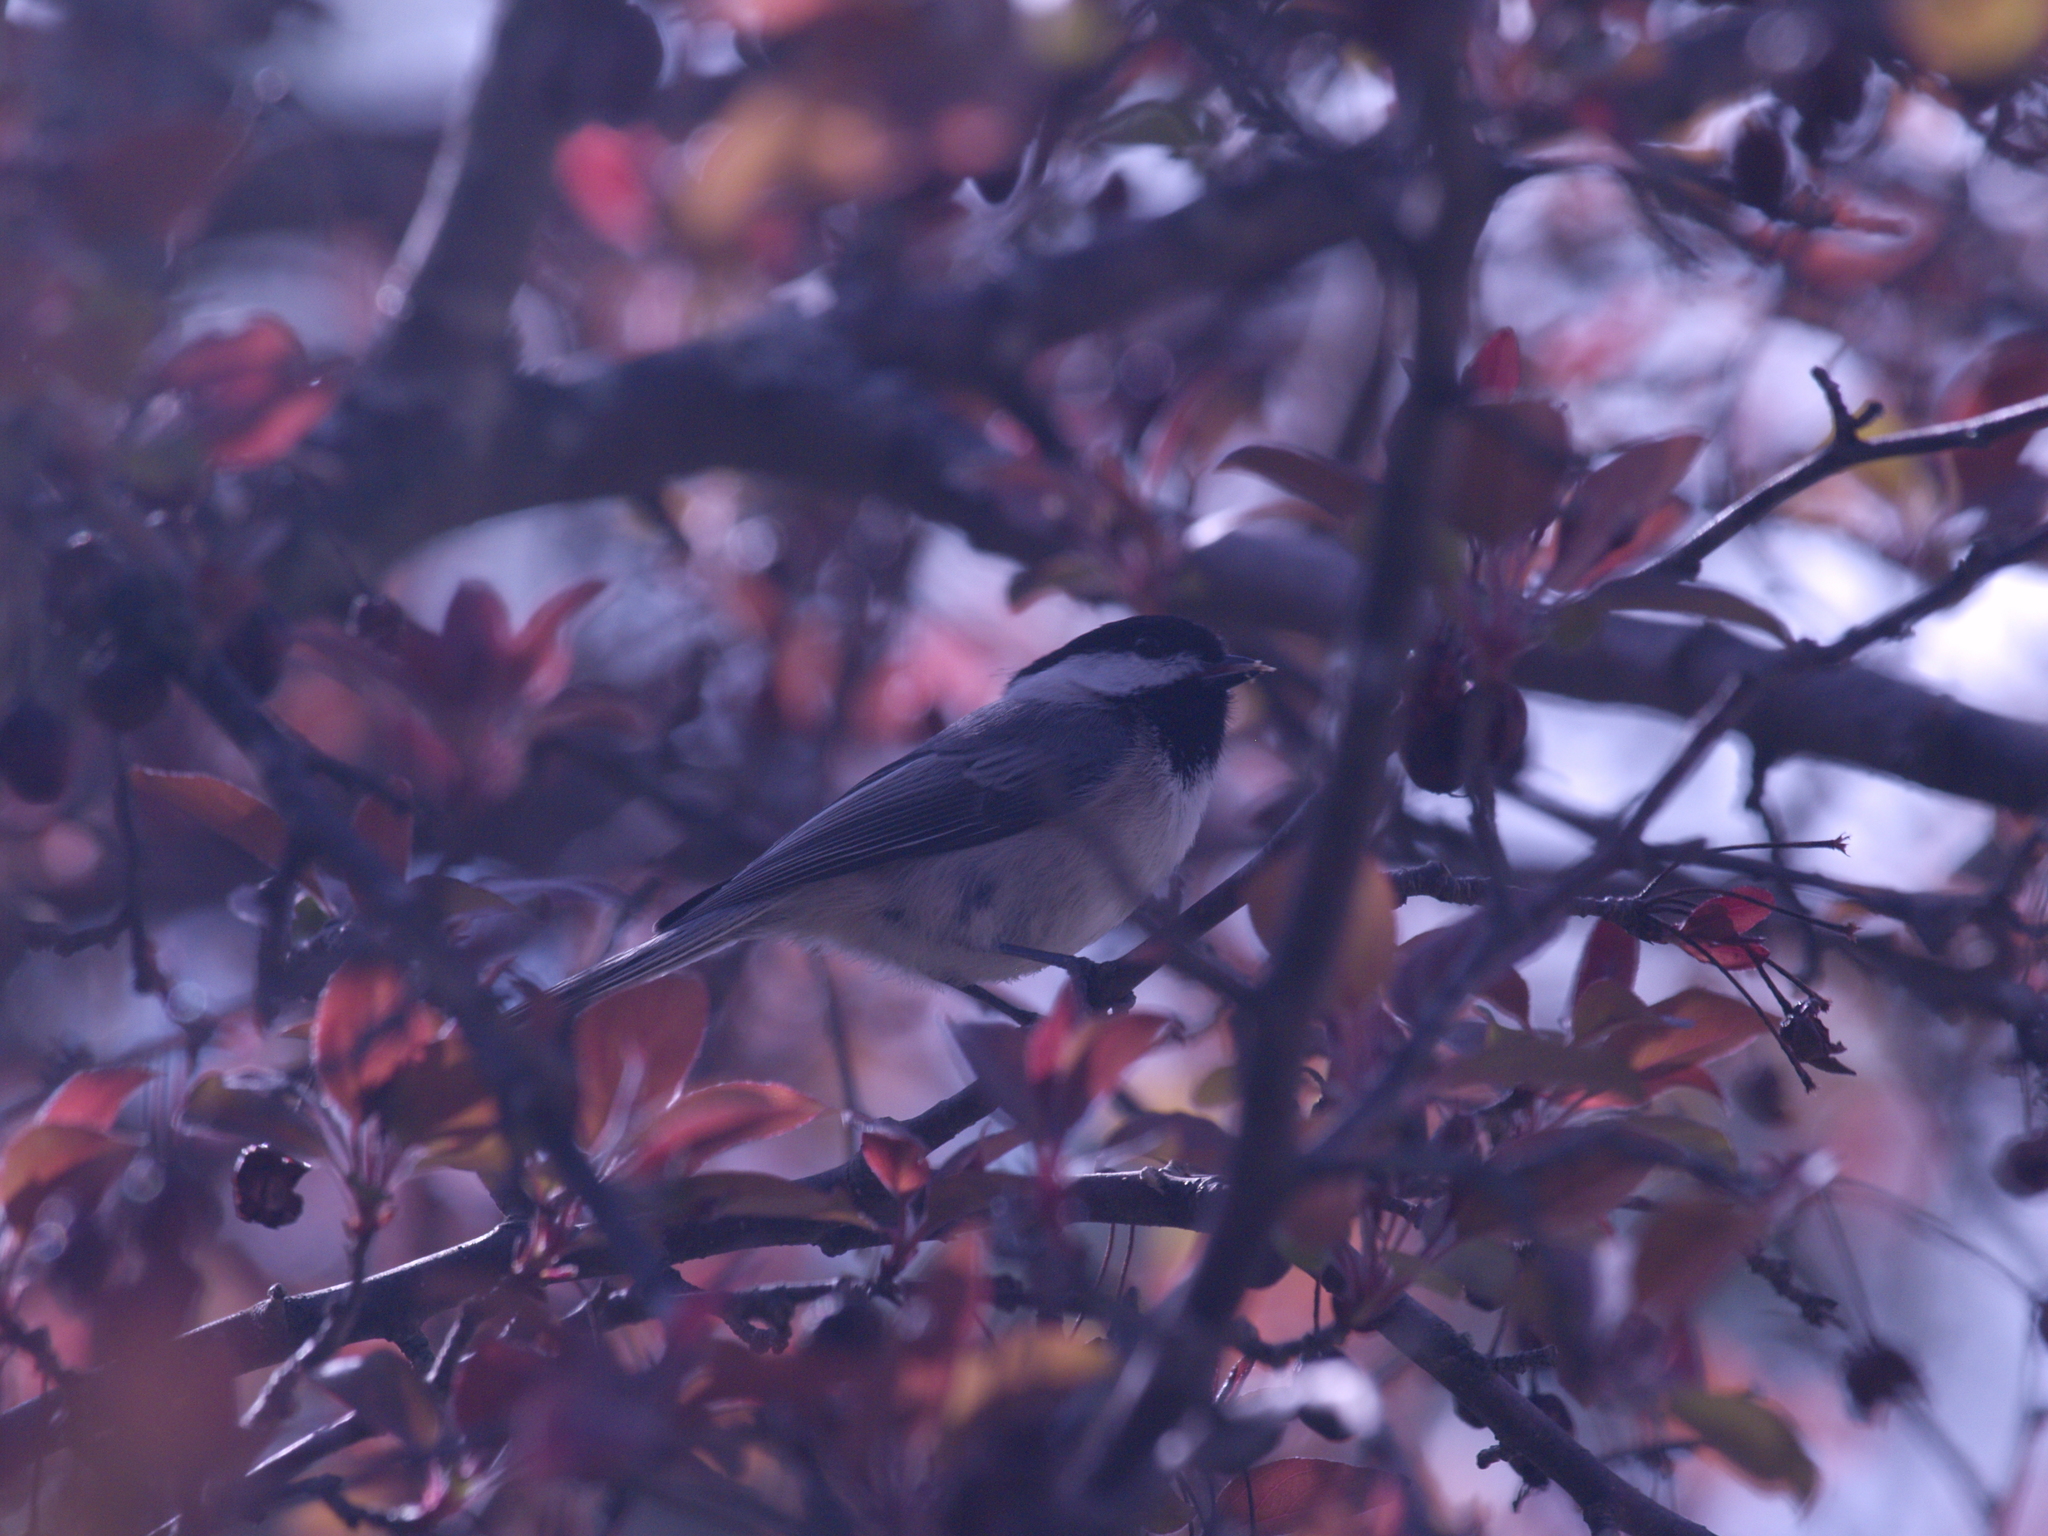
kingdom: Animalia
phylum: Chordata
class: Aves
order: Passeriformes
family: Paridae
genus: Poecile
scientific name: Poecile atricapillus
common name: Black-capped chickadee
